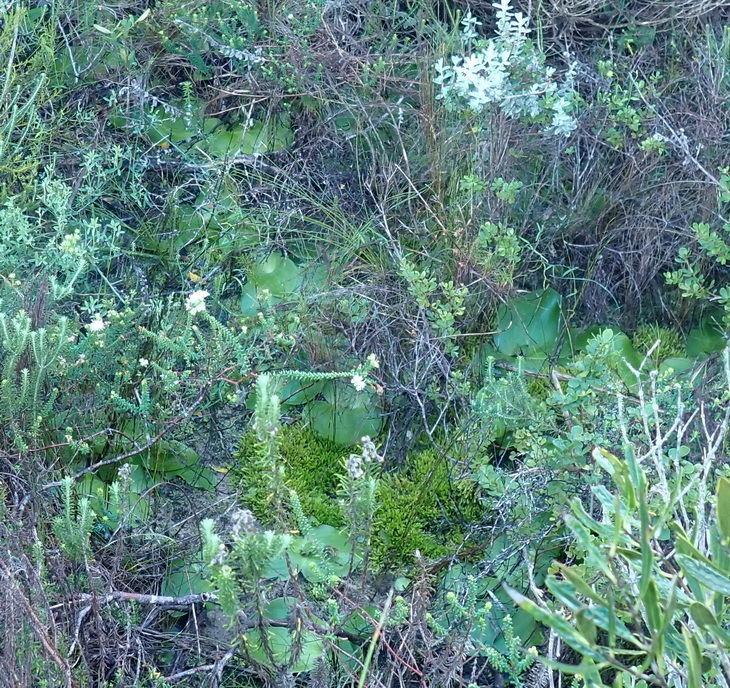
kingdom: Plantae
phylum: Tracheophyta
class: Liliopsida
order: Asparagales
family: Orchidaceae
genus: Satyrium
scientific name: Satyrium princeps
